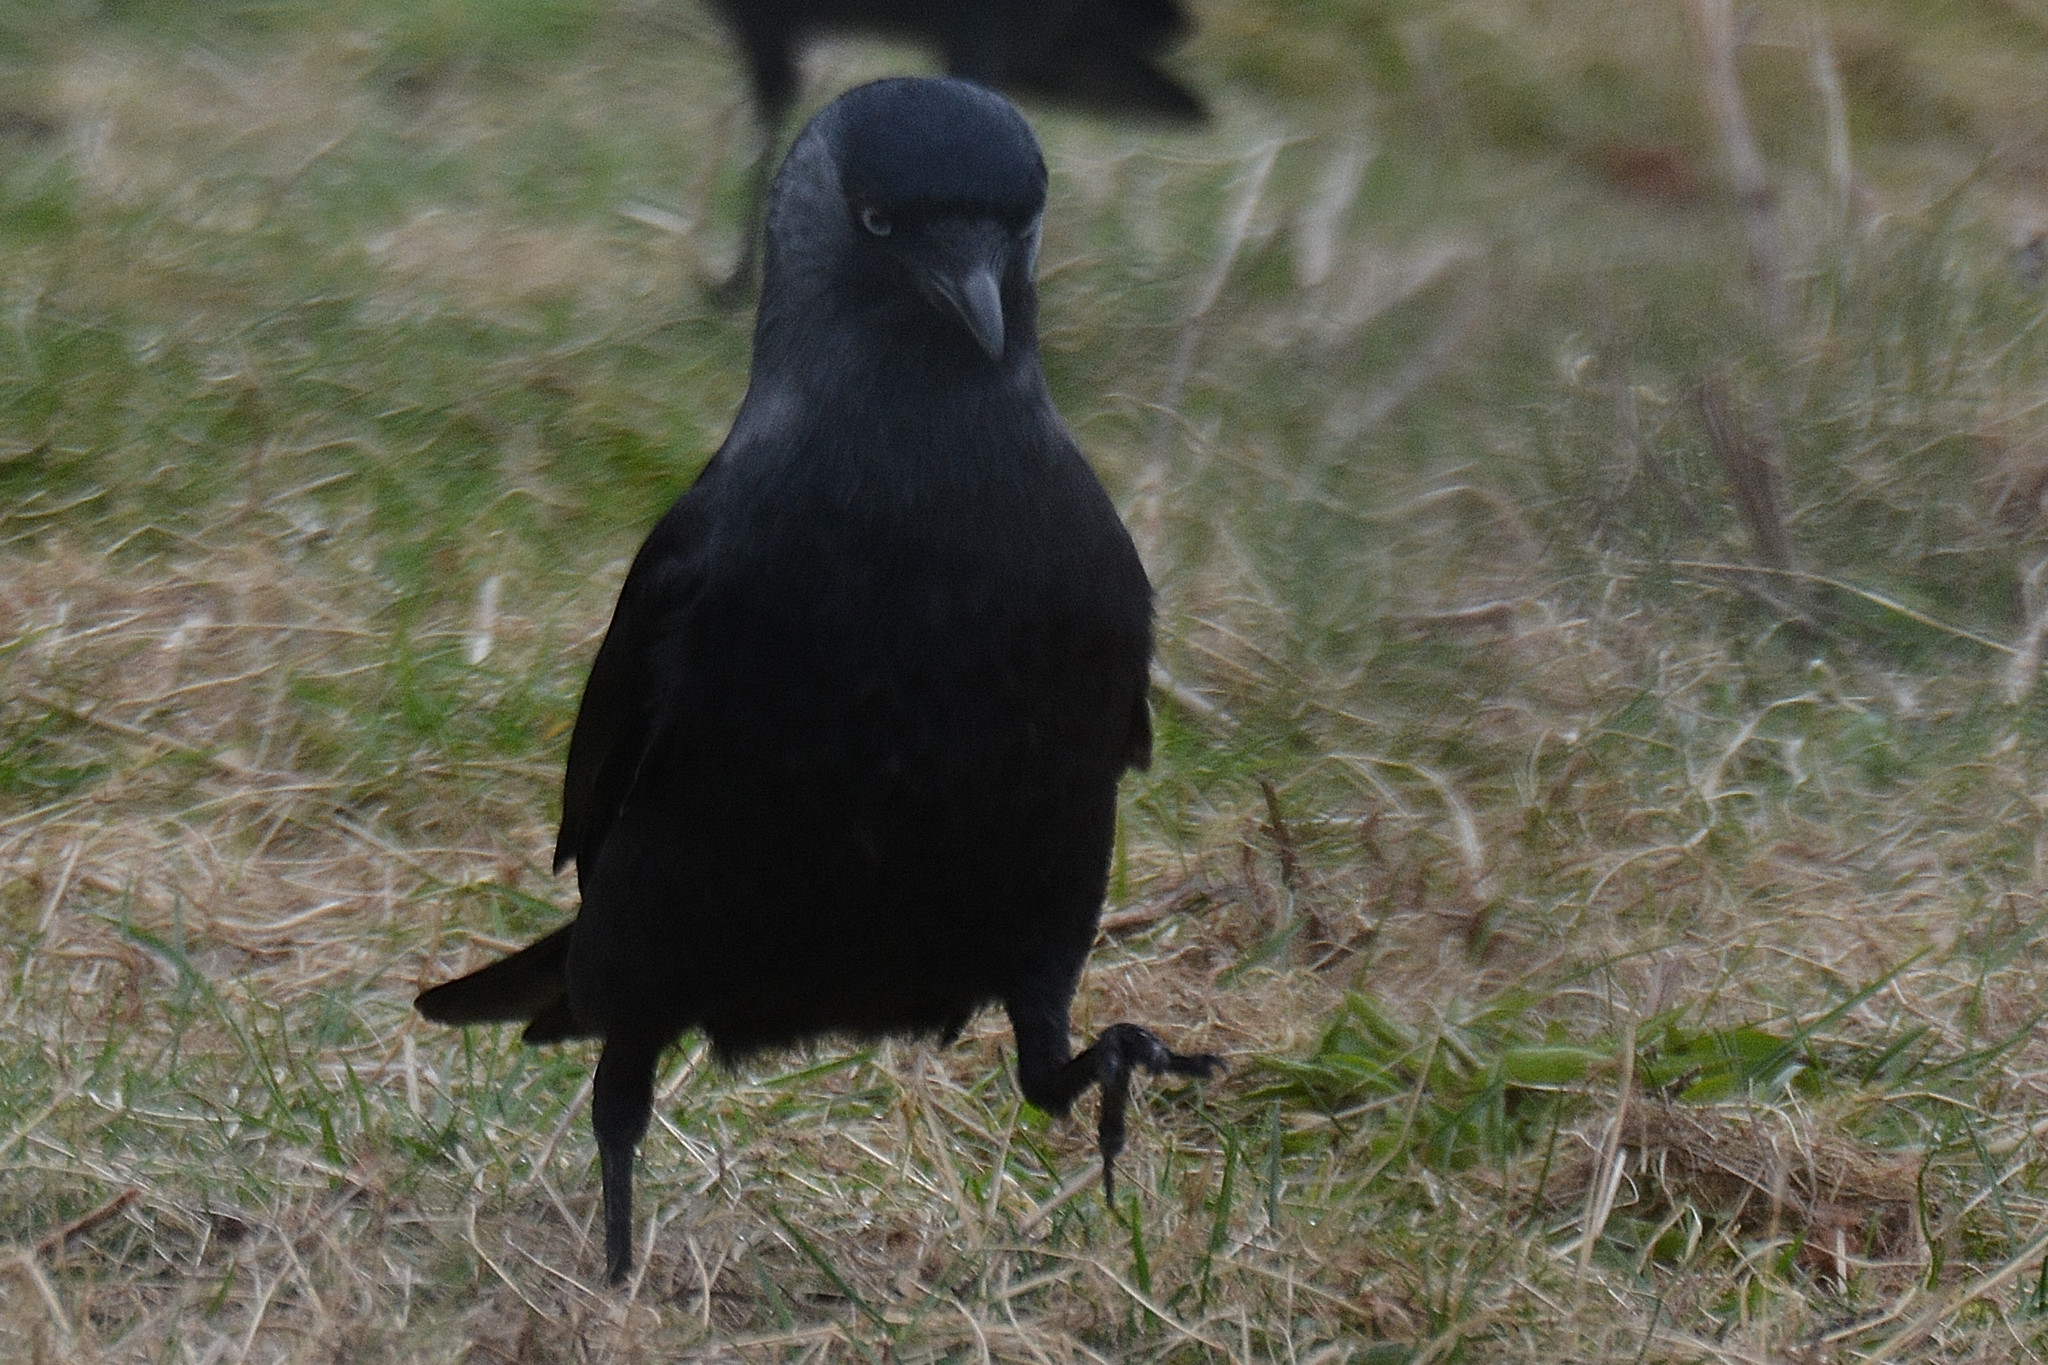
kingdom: Animalia
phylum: Chordata
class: Aves
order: Passeriformes
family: Corvidae
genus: Coloeus
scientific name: Coloeus monedula
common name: Western jackdaw
